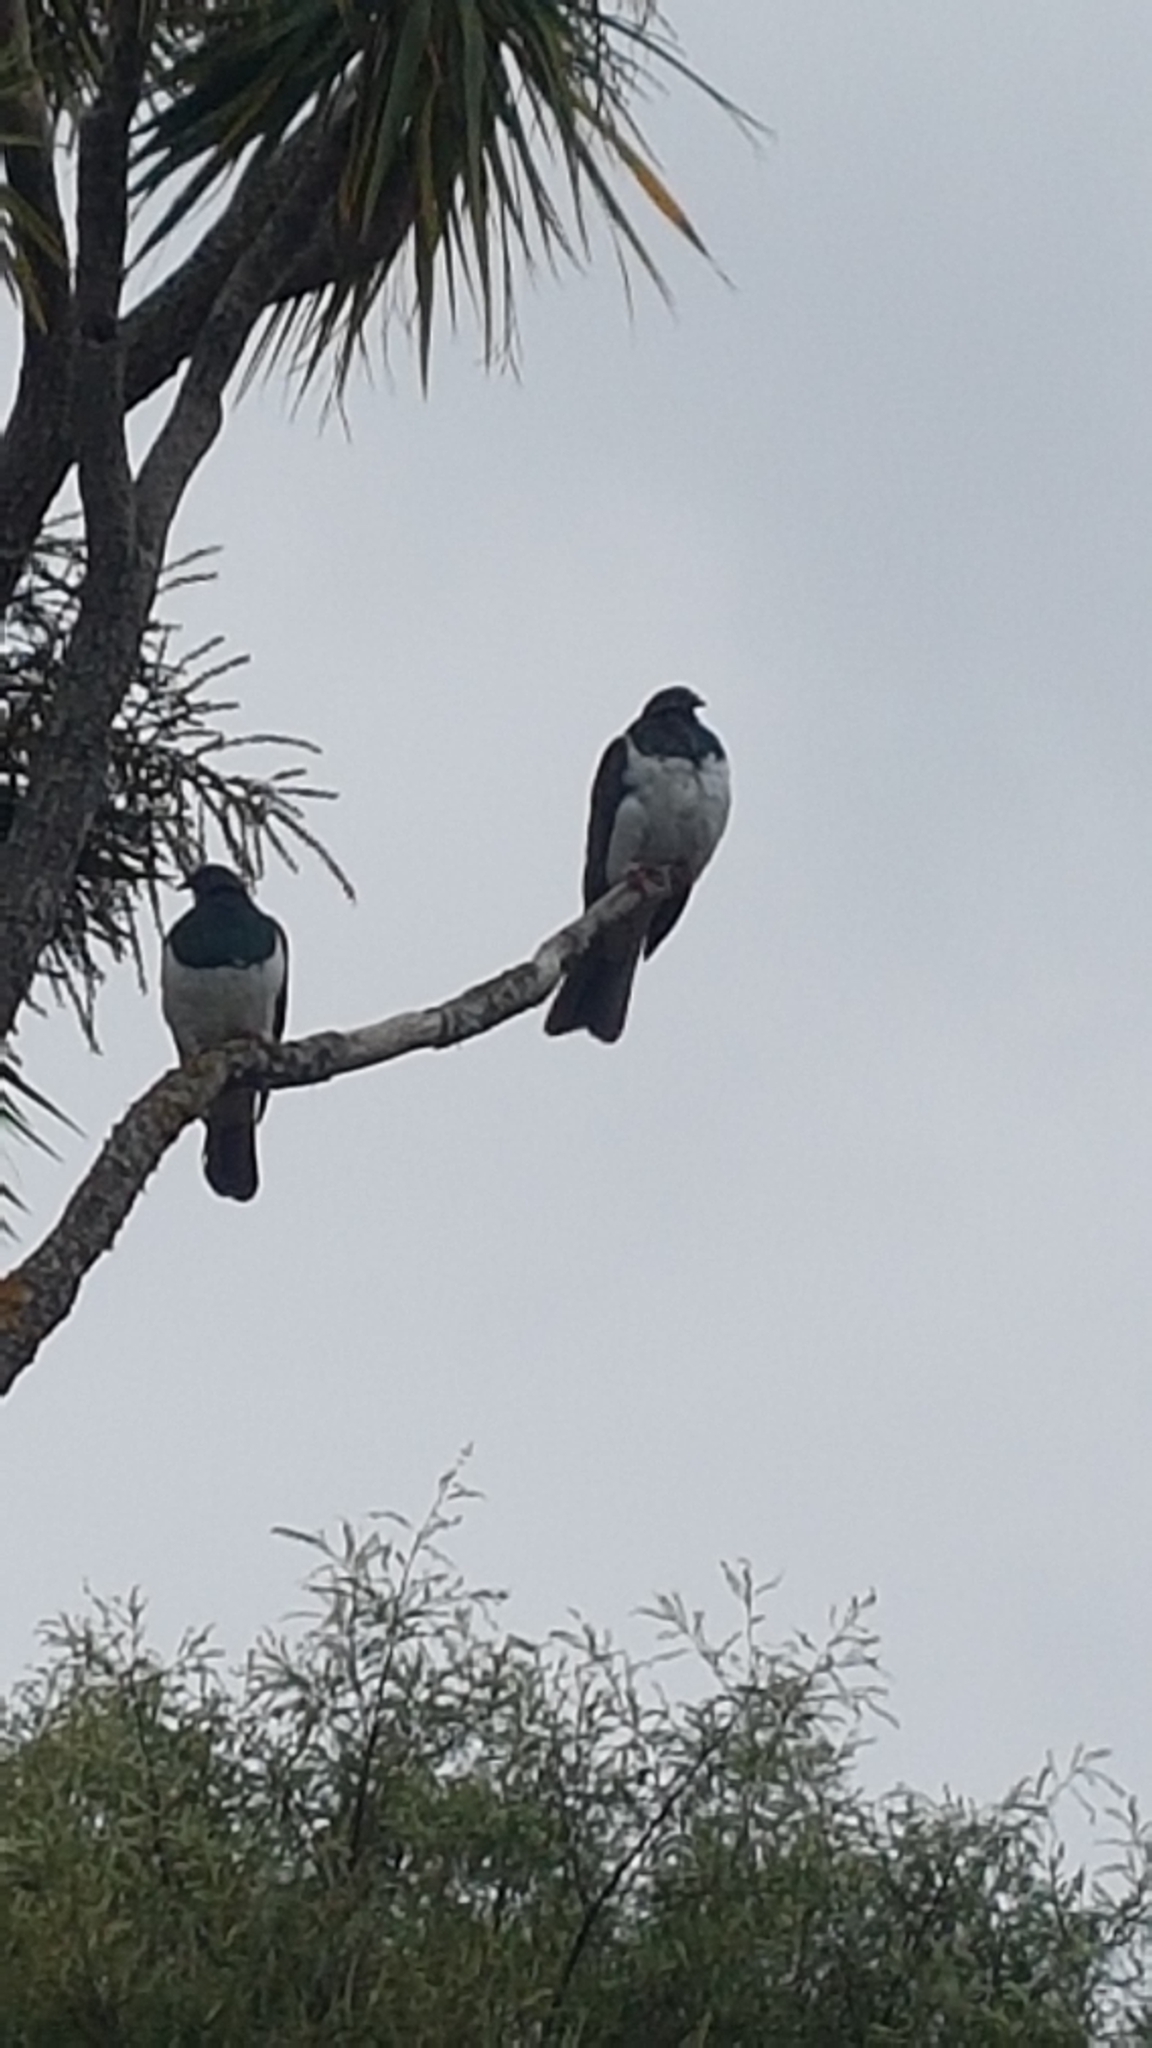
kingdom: Animalia
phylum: Chordata
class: Aves
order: Columbiformes
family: Columbidae
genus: Hemiphaga
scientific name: Hemiphaga novaeseelandiae
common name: New zealand pigeon
